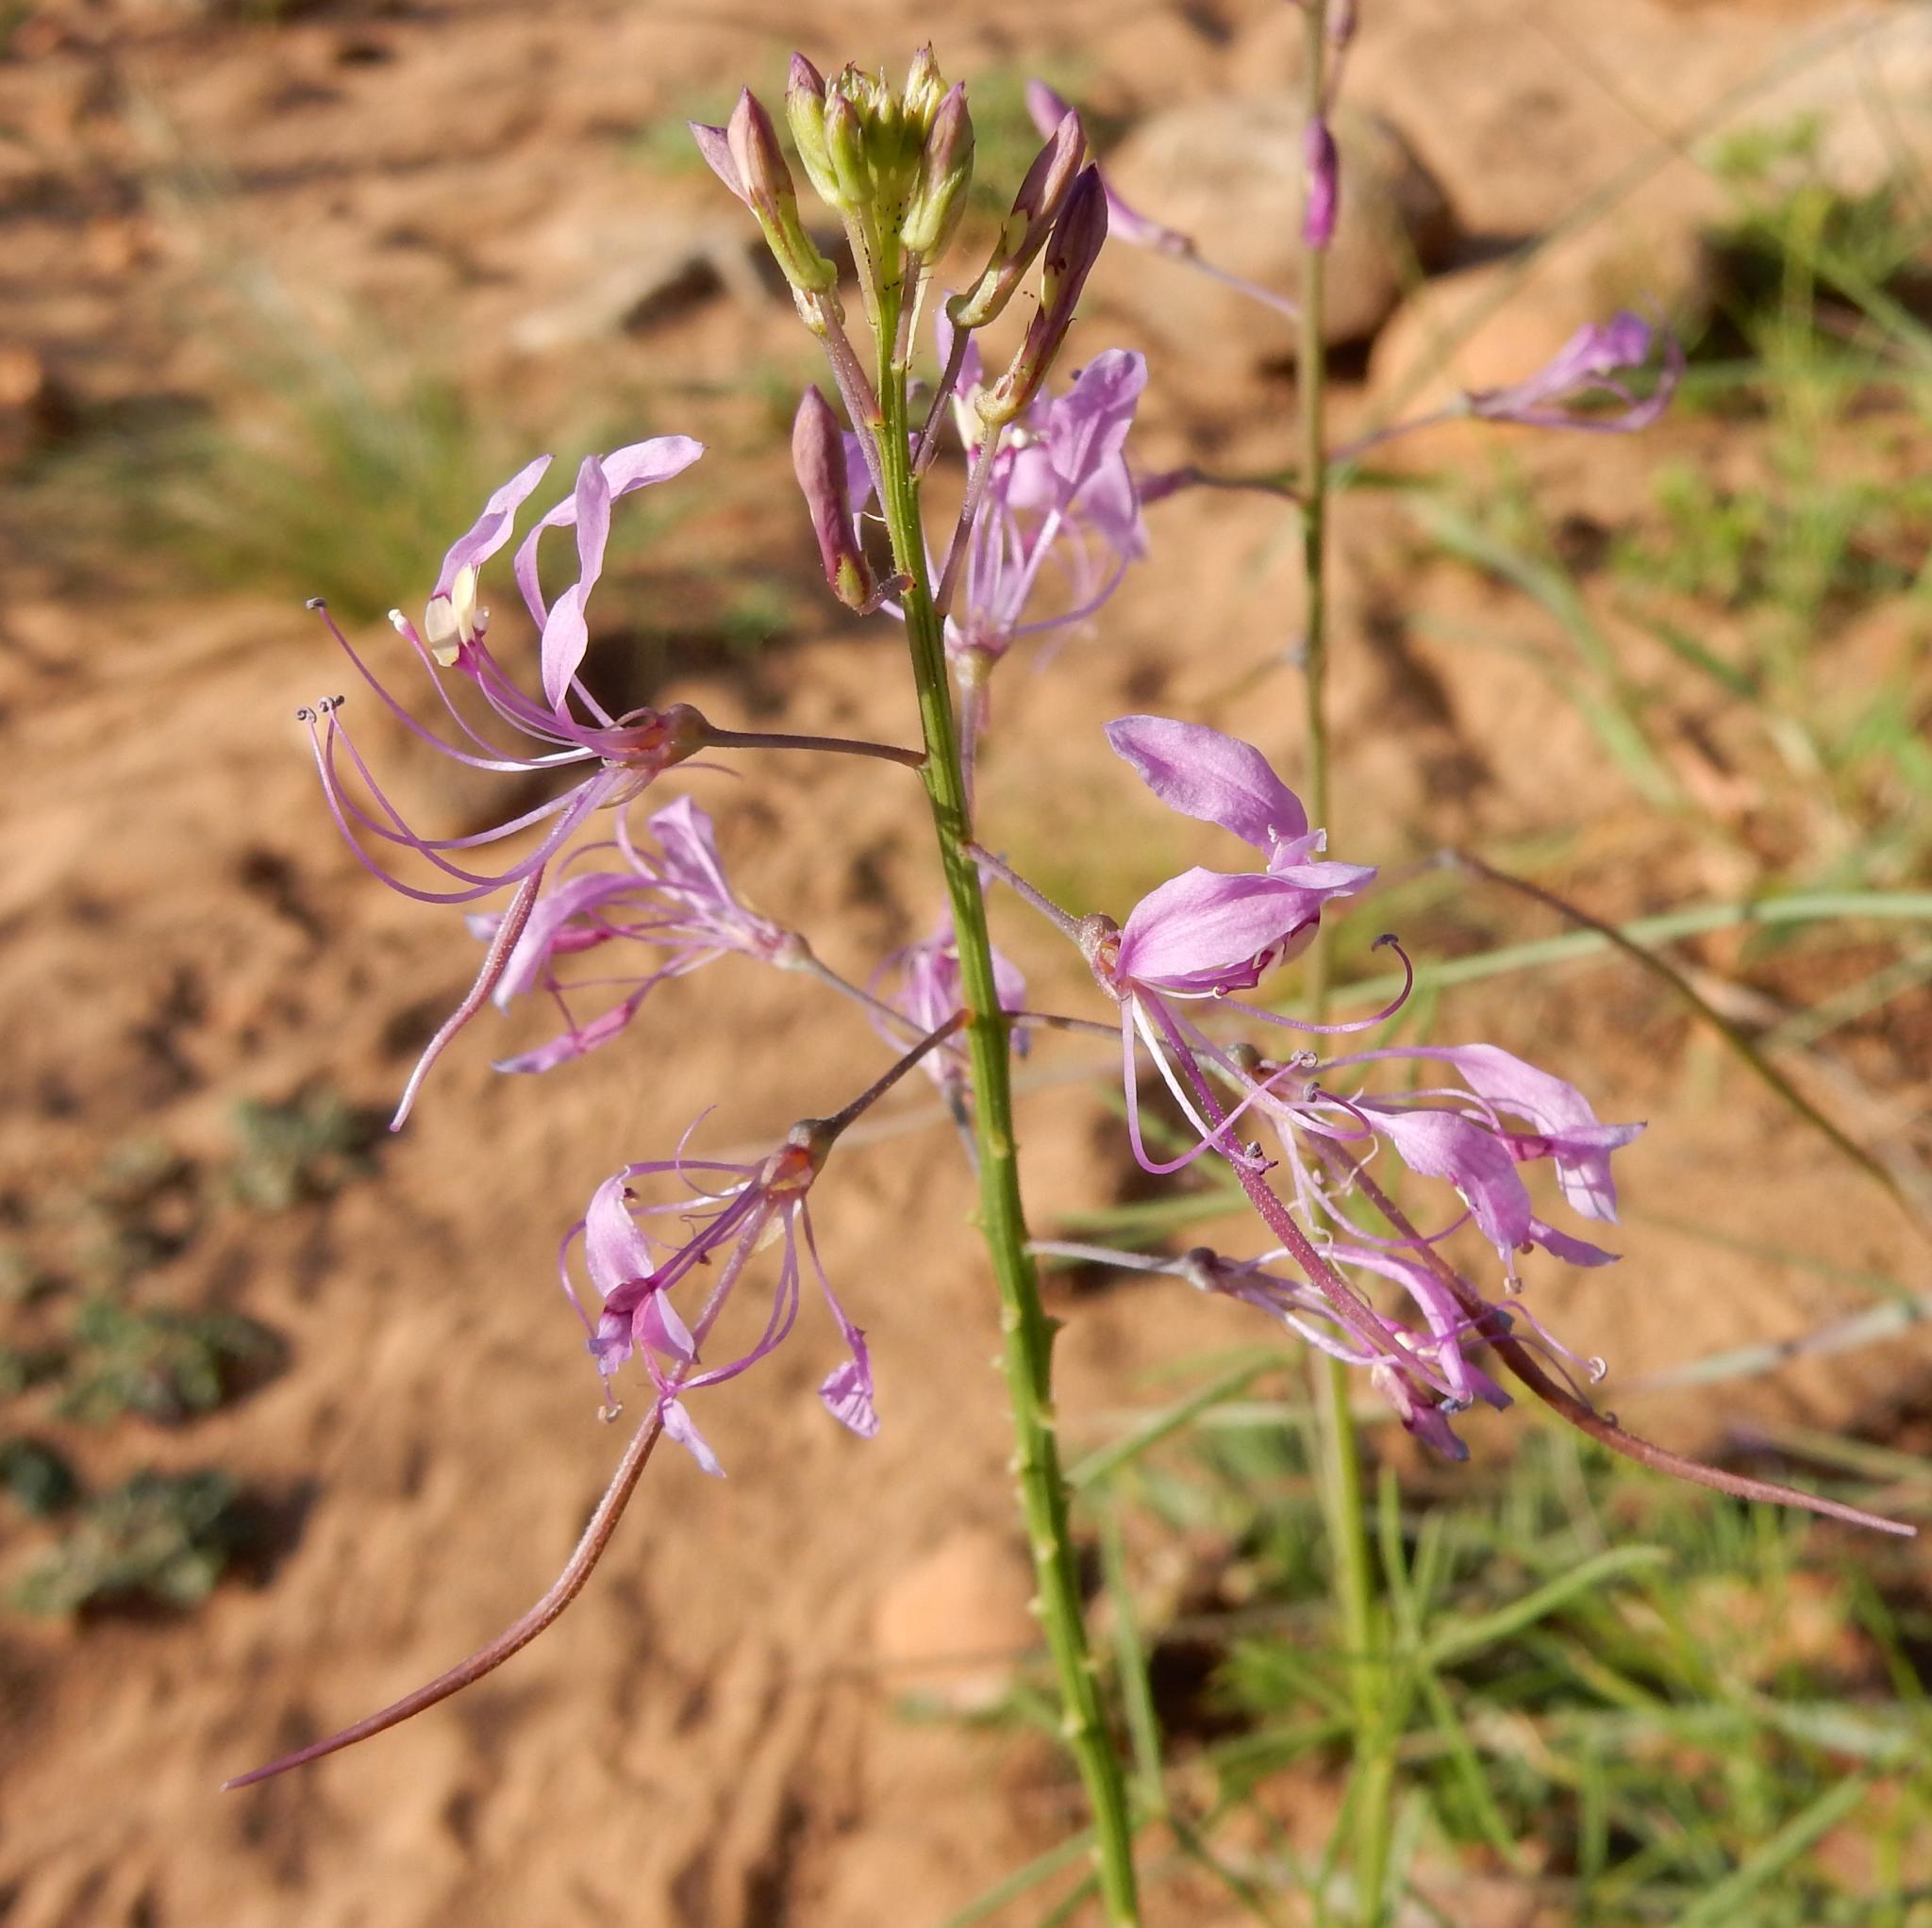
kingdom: Plantae
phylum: Tracheophyta
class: Magnoliopsida
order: Brassicales
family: Cleomaceae
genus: Sieruela
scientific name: Sieruela maculata
